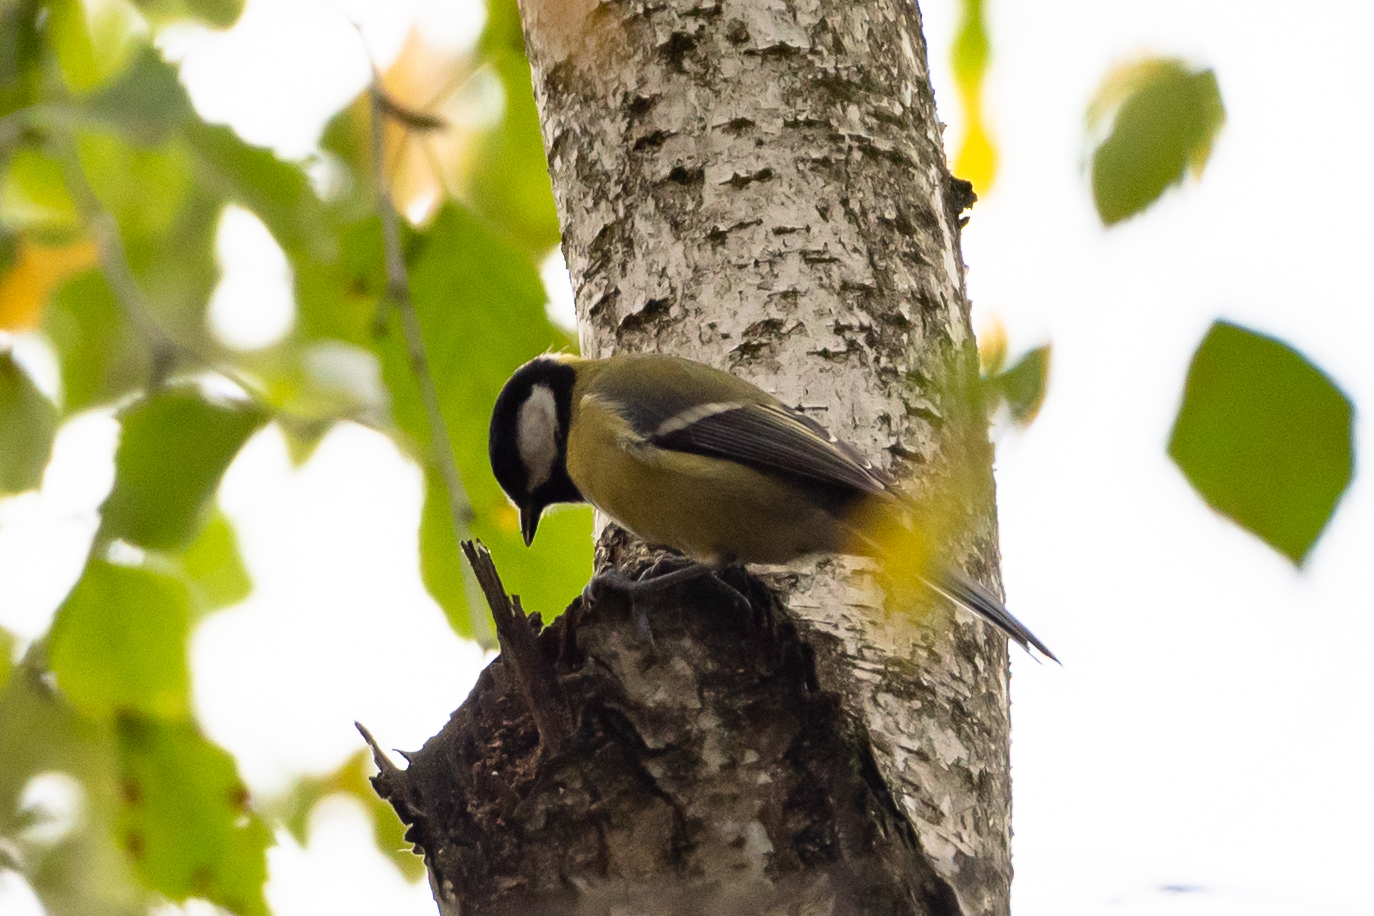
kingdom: Animalia
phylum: Chordata
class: Aves
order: Passeriformes
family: Paridae
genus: Parus
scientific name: Parus major
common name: Great tit
